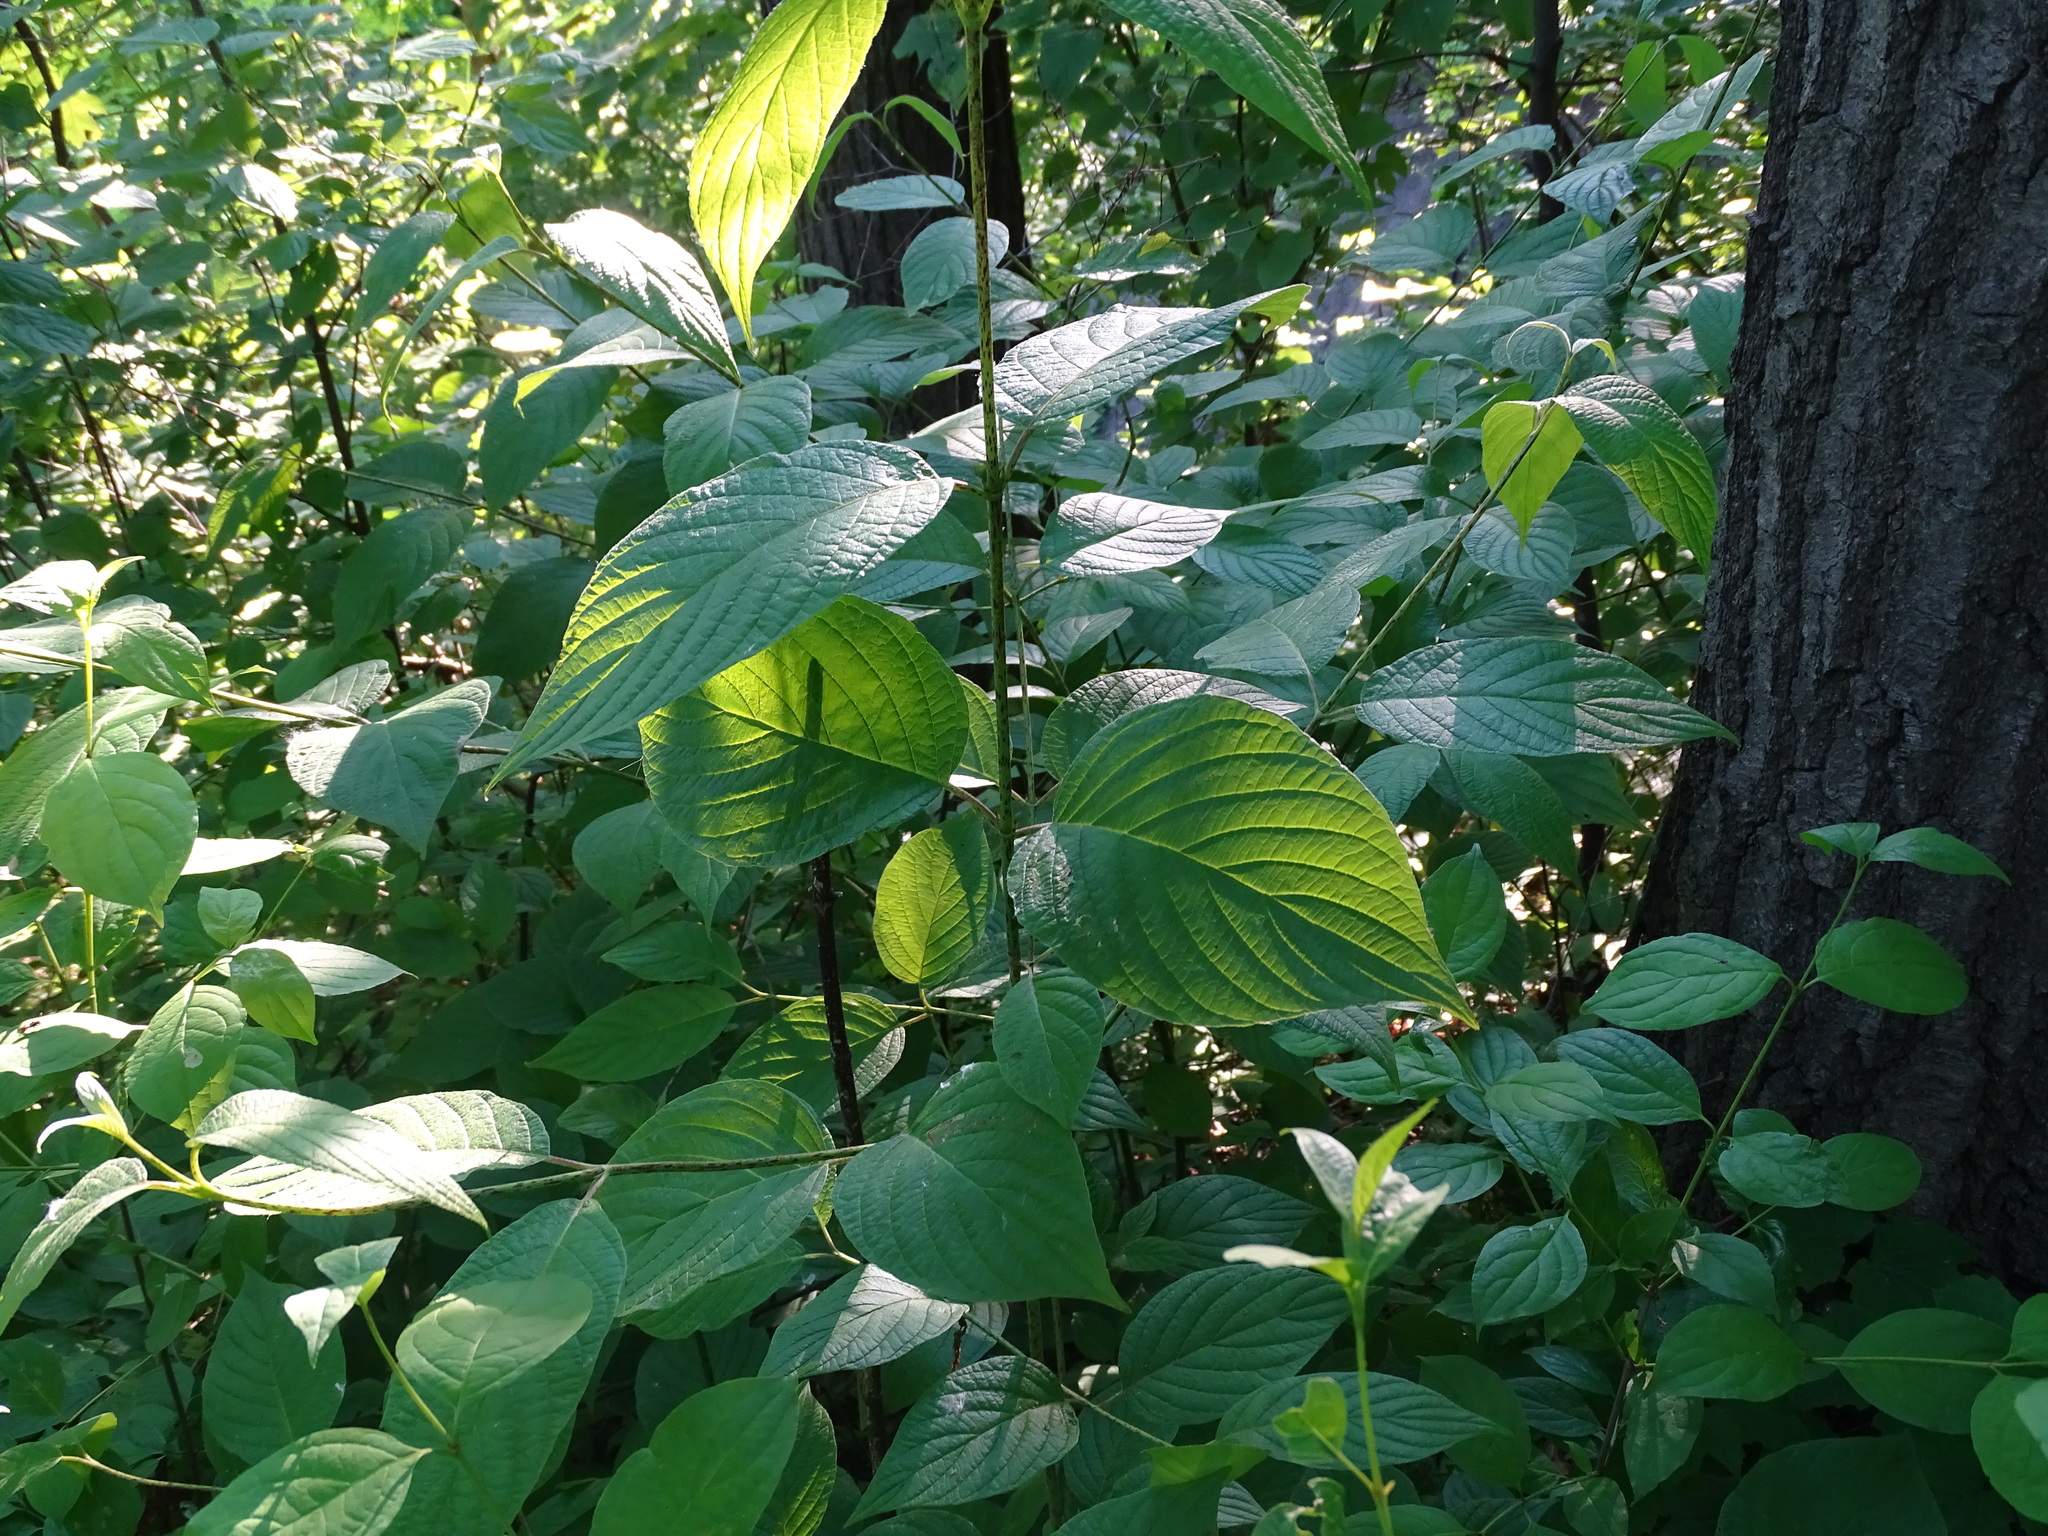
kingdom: Plantae
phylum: Tracheophyta
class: Magnoliopsida
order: Cornales
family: Cornaceae
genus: Cornus
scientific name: Cornus rugosa
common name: Round-leaf dogwood
